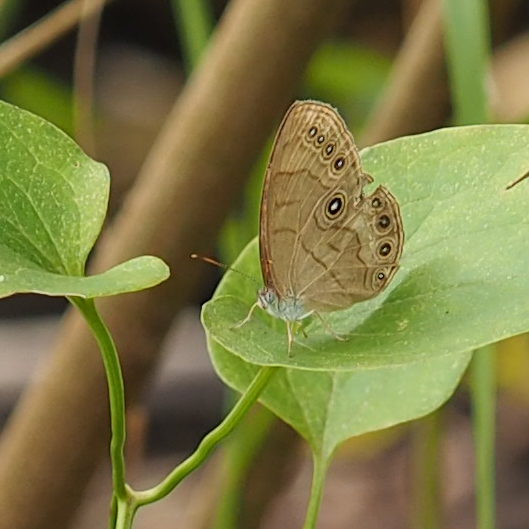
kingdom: Animalia
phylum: Arthropoda
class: Insecta
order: Lepidoptera
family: Nymphalidae
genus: Lethe
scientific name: Lethe eurydice
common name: Eyed brown
